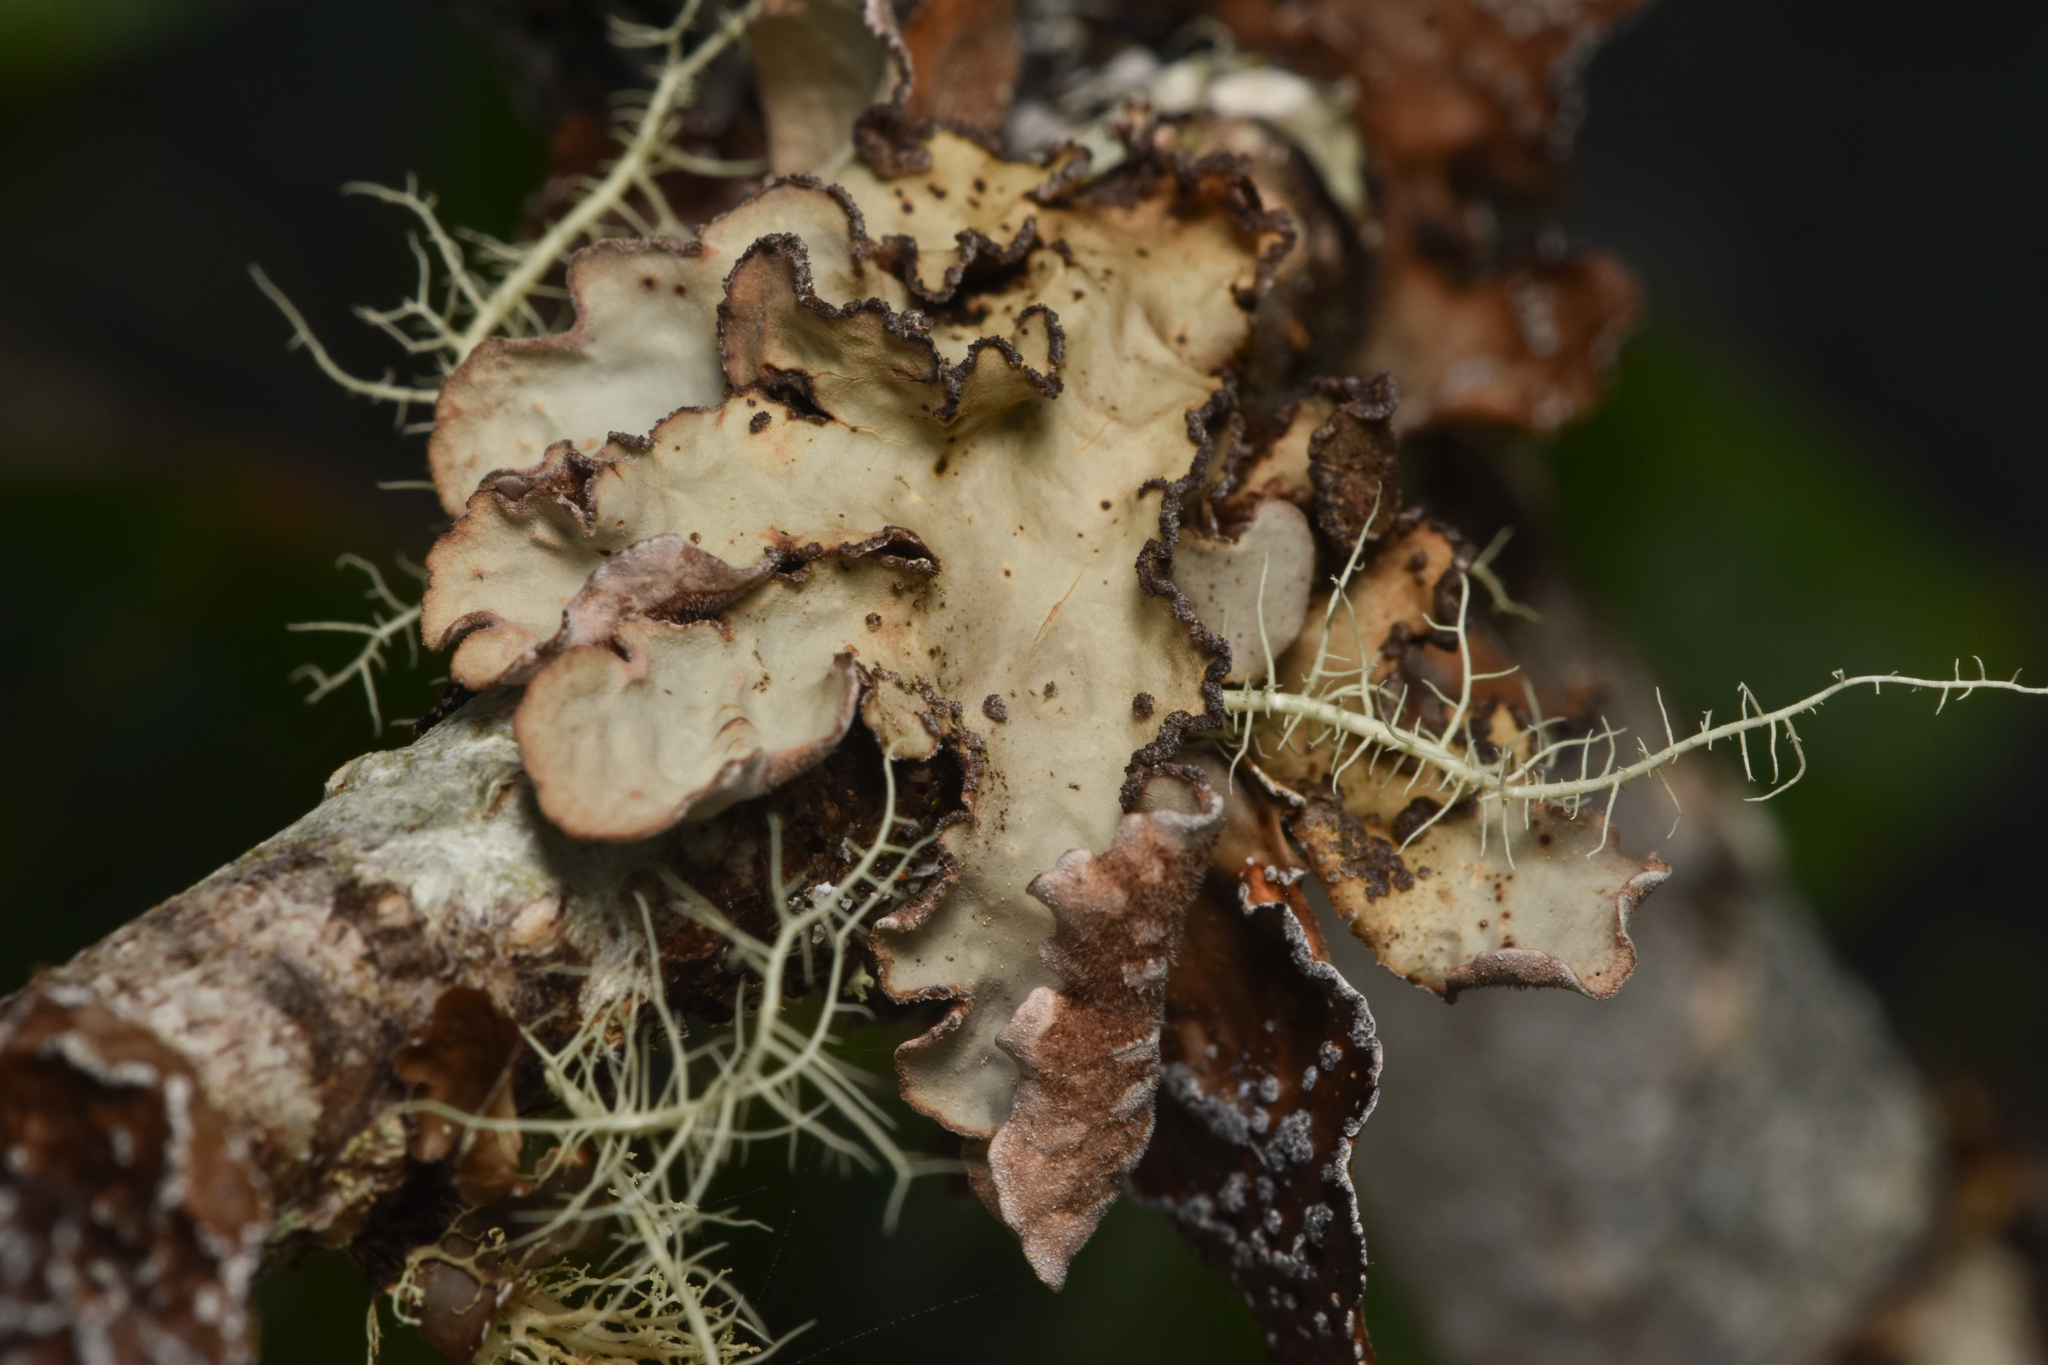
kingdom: Fungi
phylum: Ascomycota
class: Lecanoromycetes
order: Peltigerales
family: Lobariaceae
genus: Lobarina
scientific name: Lobarina scrobiculata
